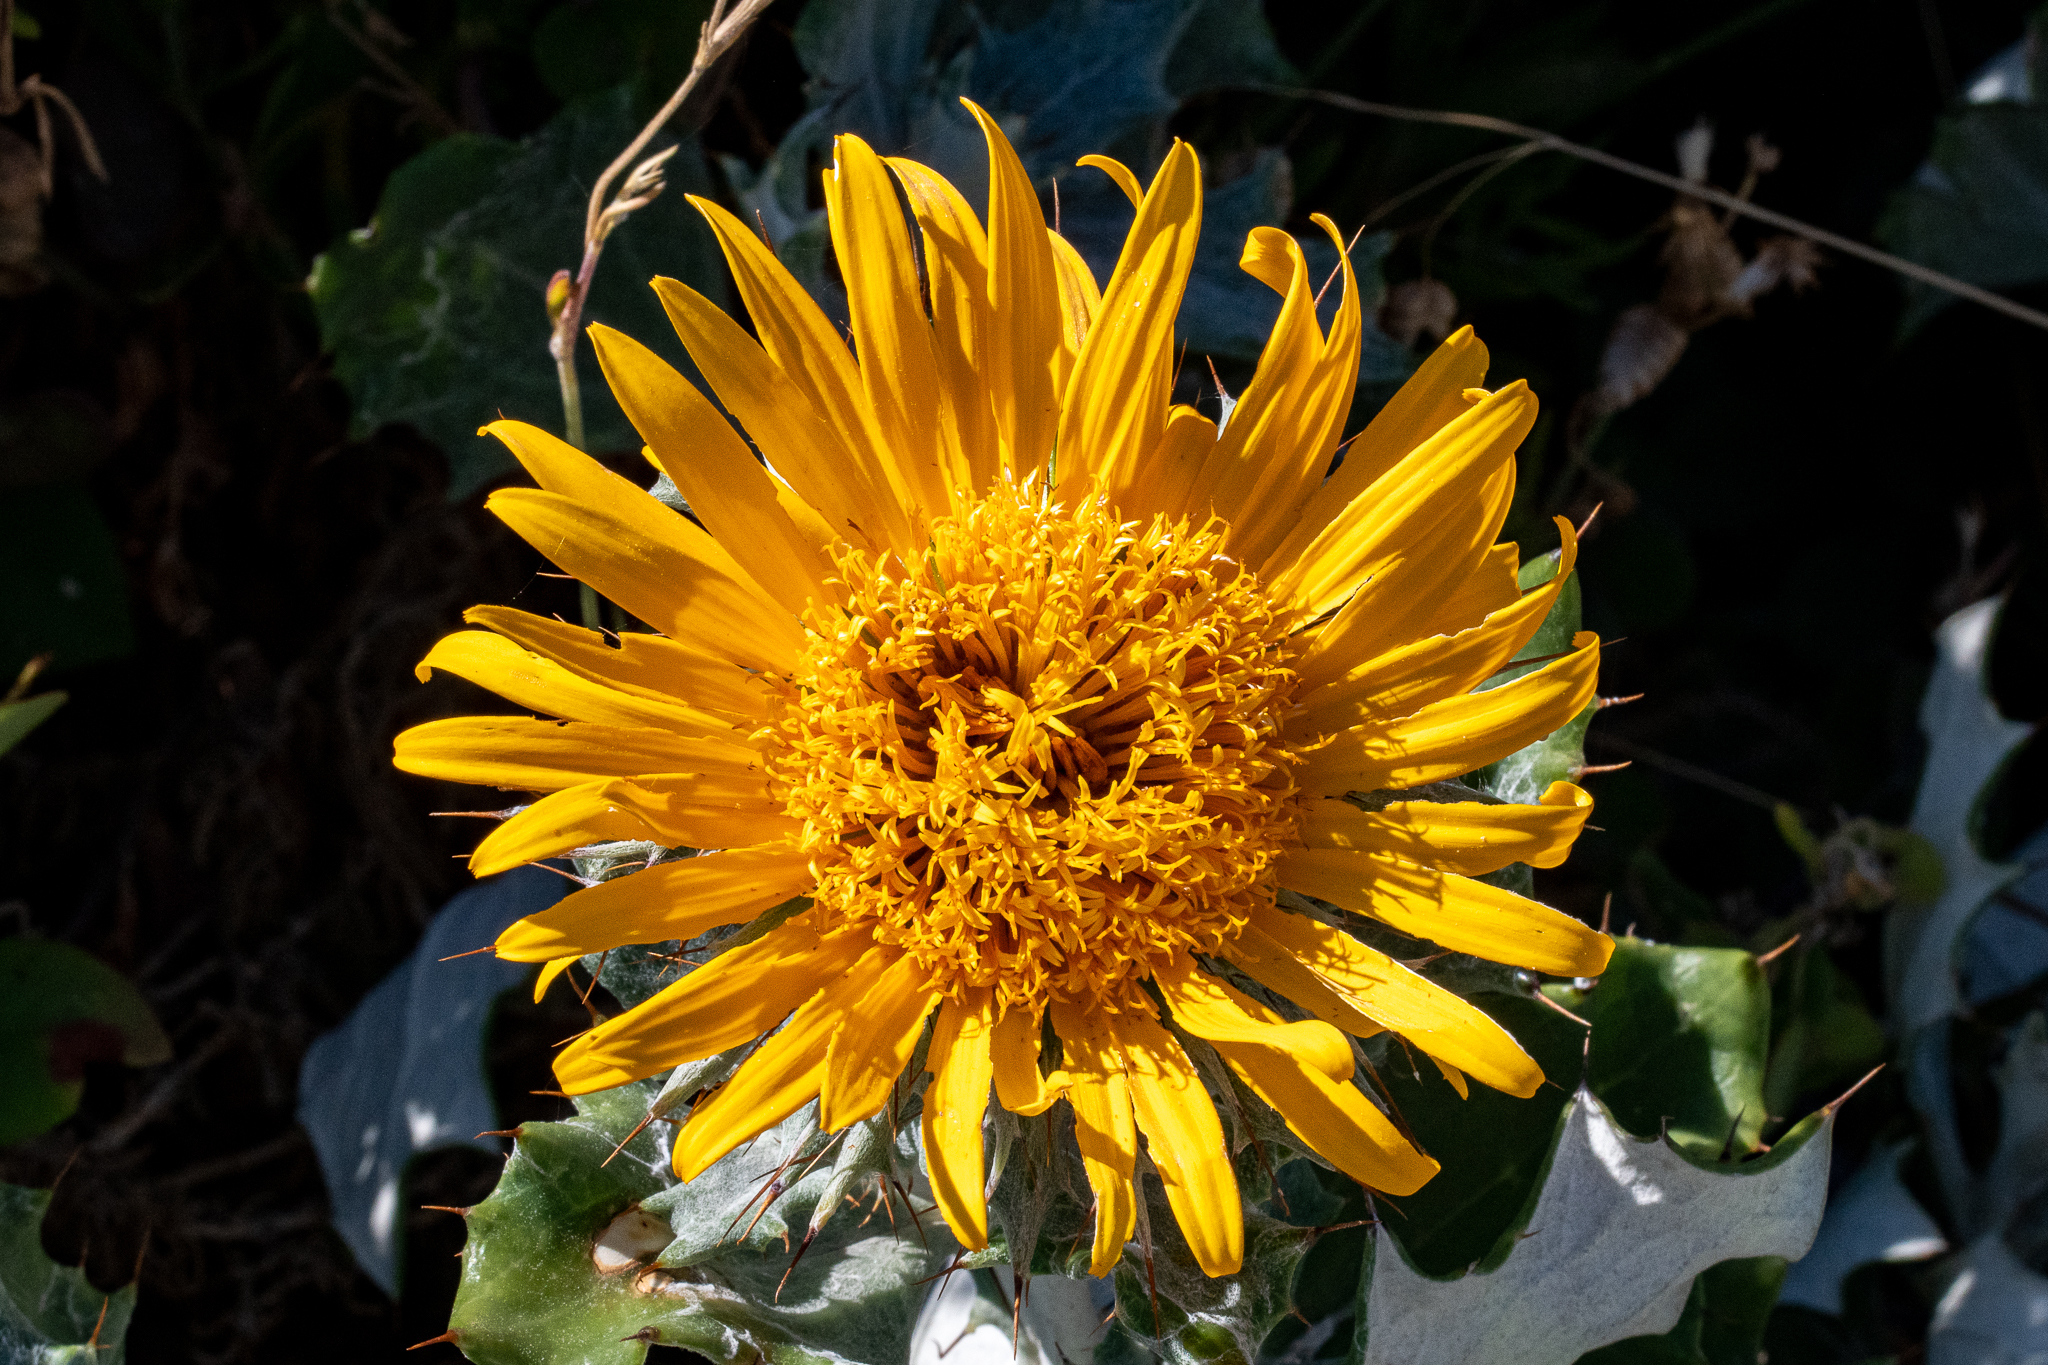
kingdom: Plantae
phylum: Tracheophyta
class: Magnoliopsida
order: Asterales
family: Asteraceae
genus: Berkheya
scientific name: Berkheya barbata
